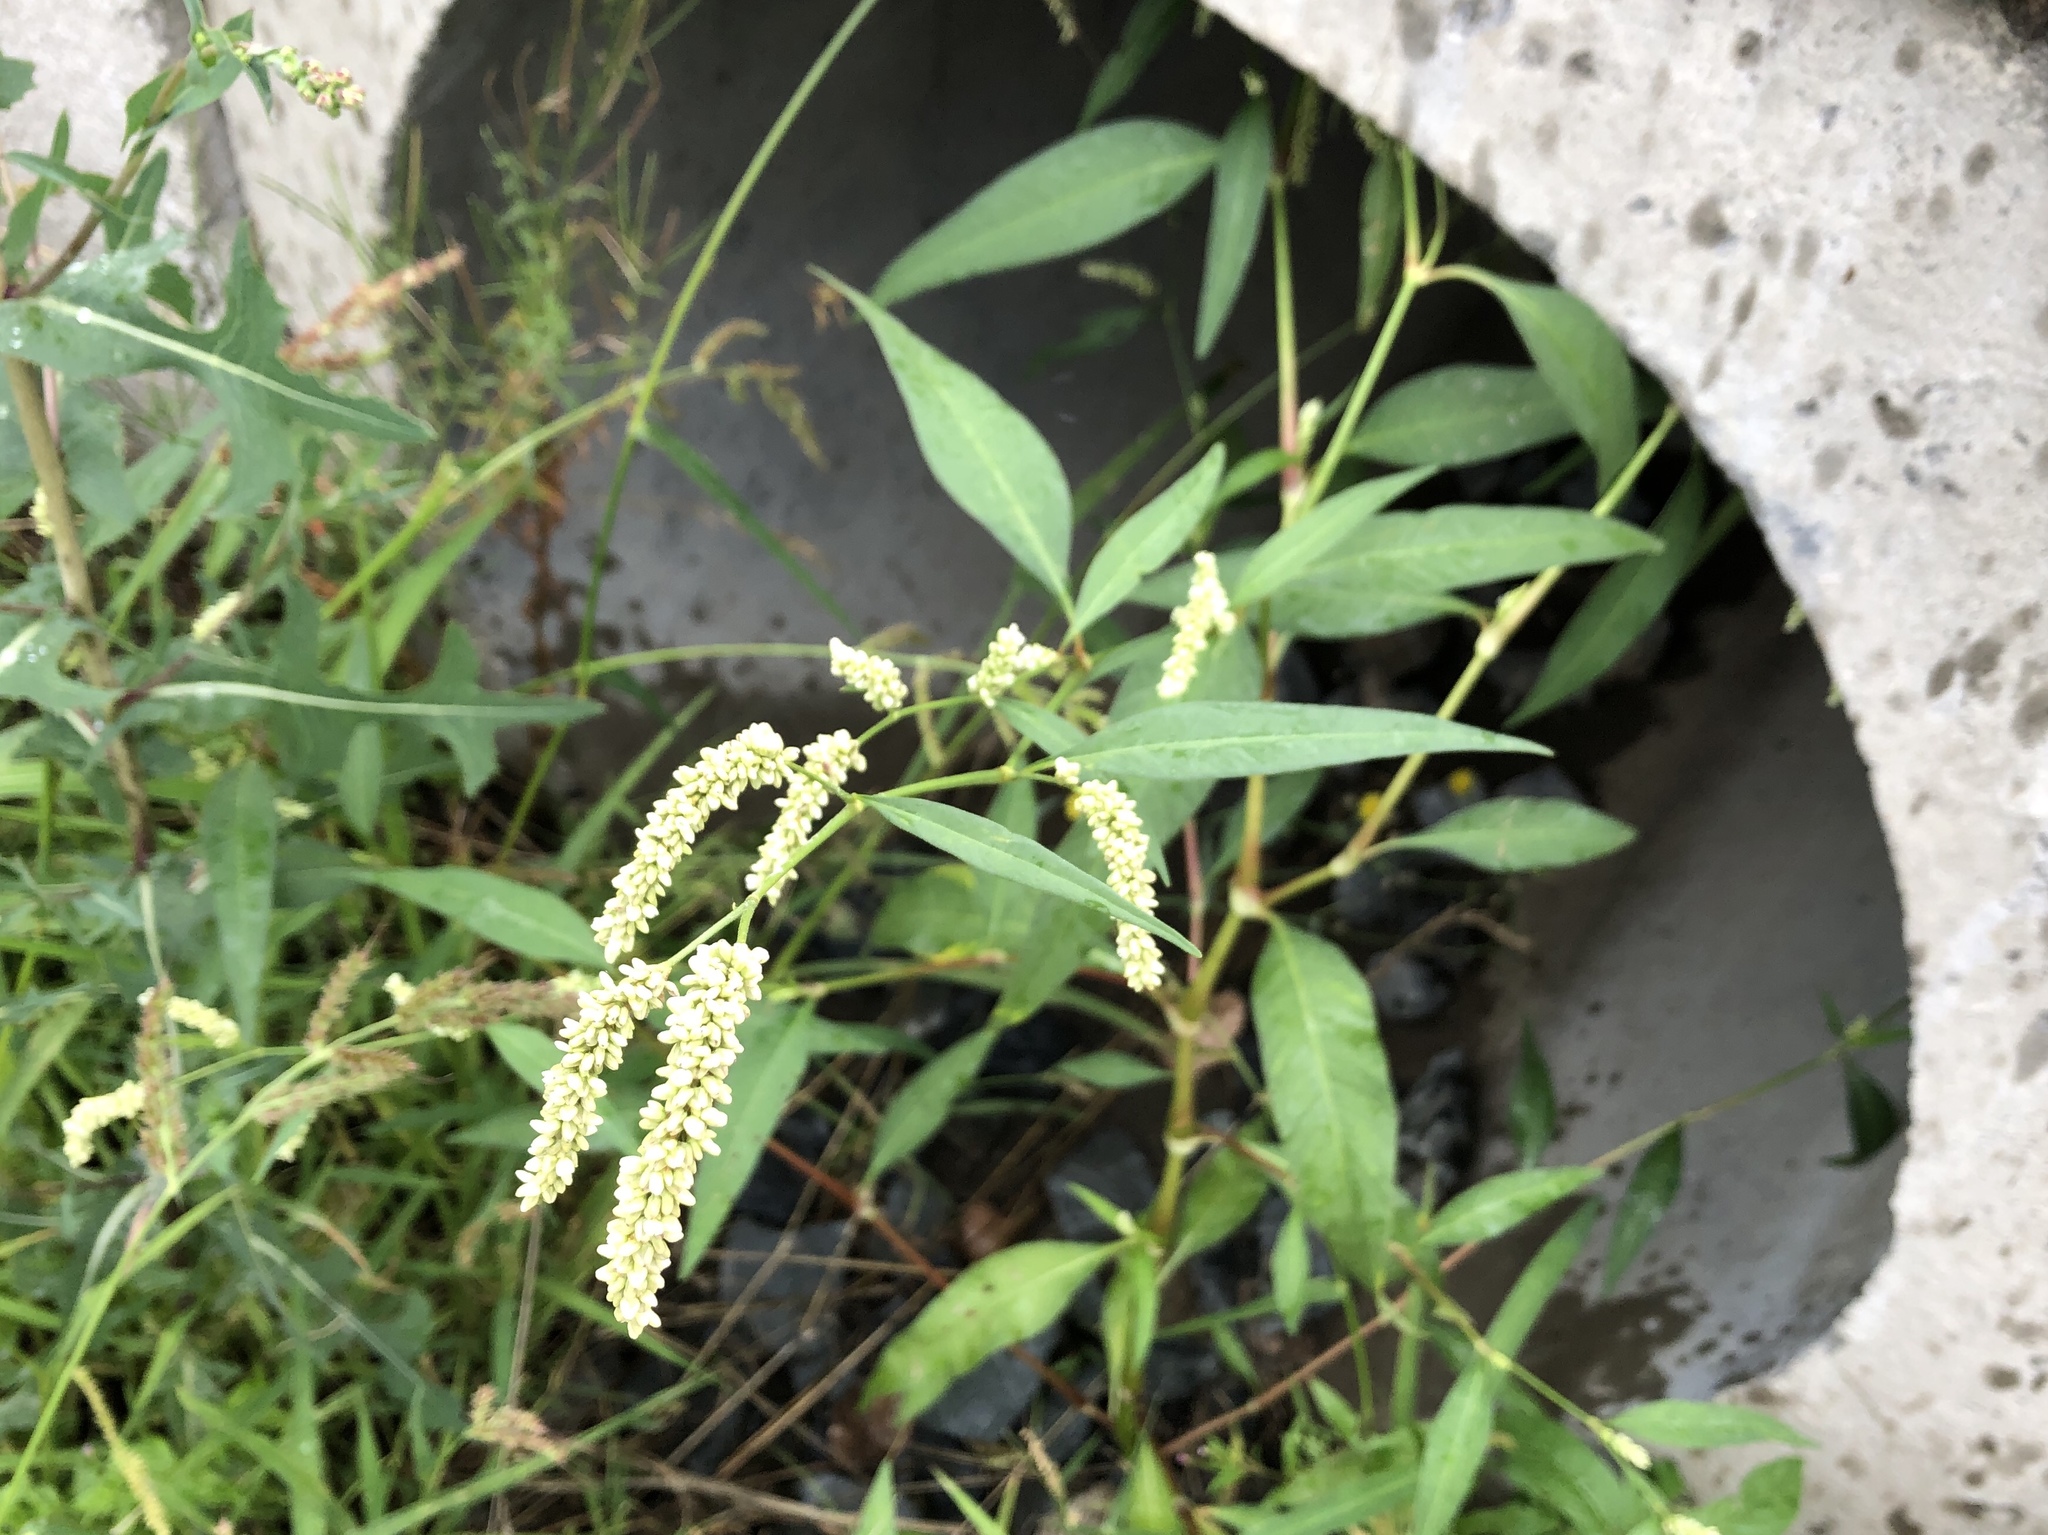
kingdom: Plantae
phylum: Tracheophyta
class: Magnoliopsida
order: Caryophyllales
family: Polygonaceae
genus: Persicaria
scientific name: Persicaria lapathifolia
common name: Curlytop knotweed
